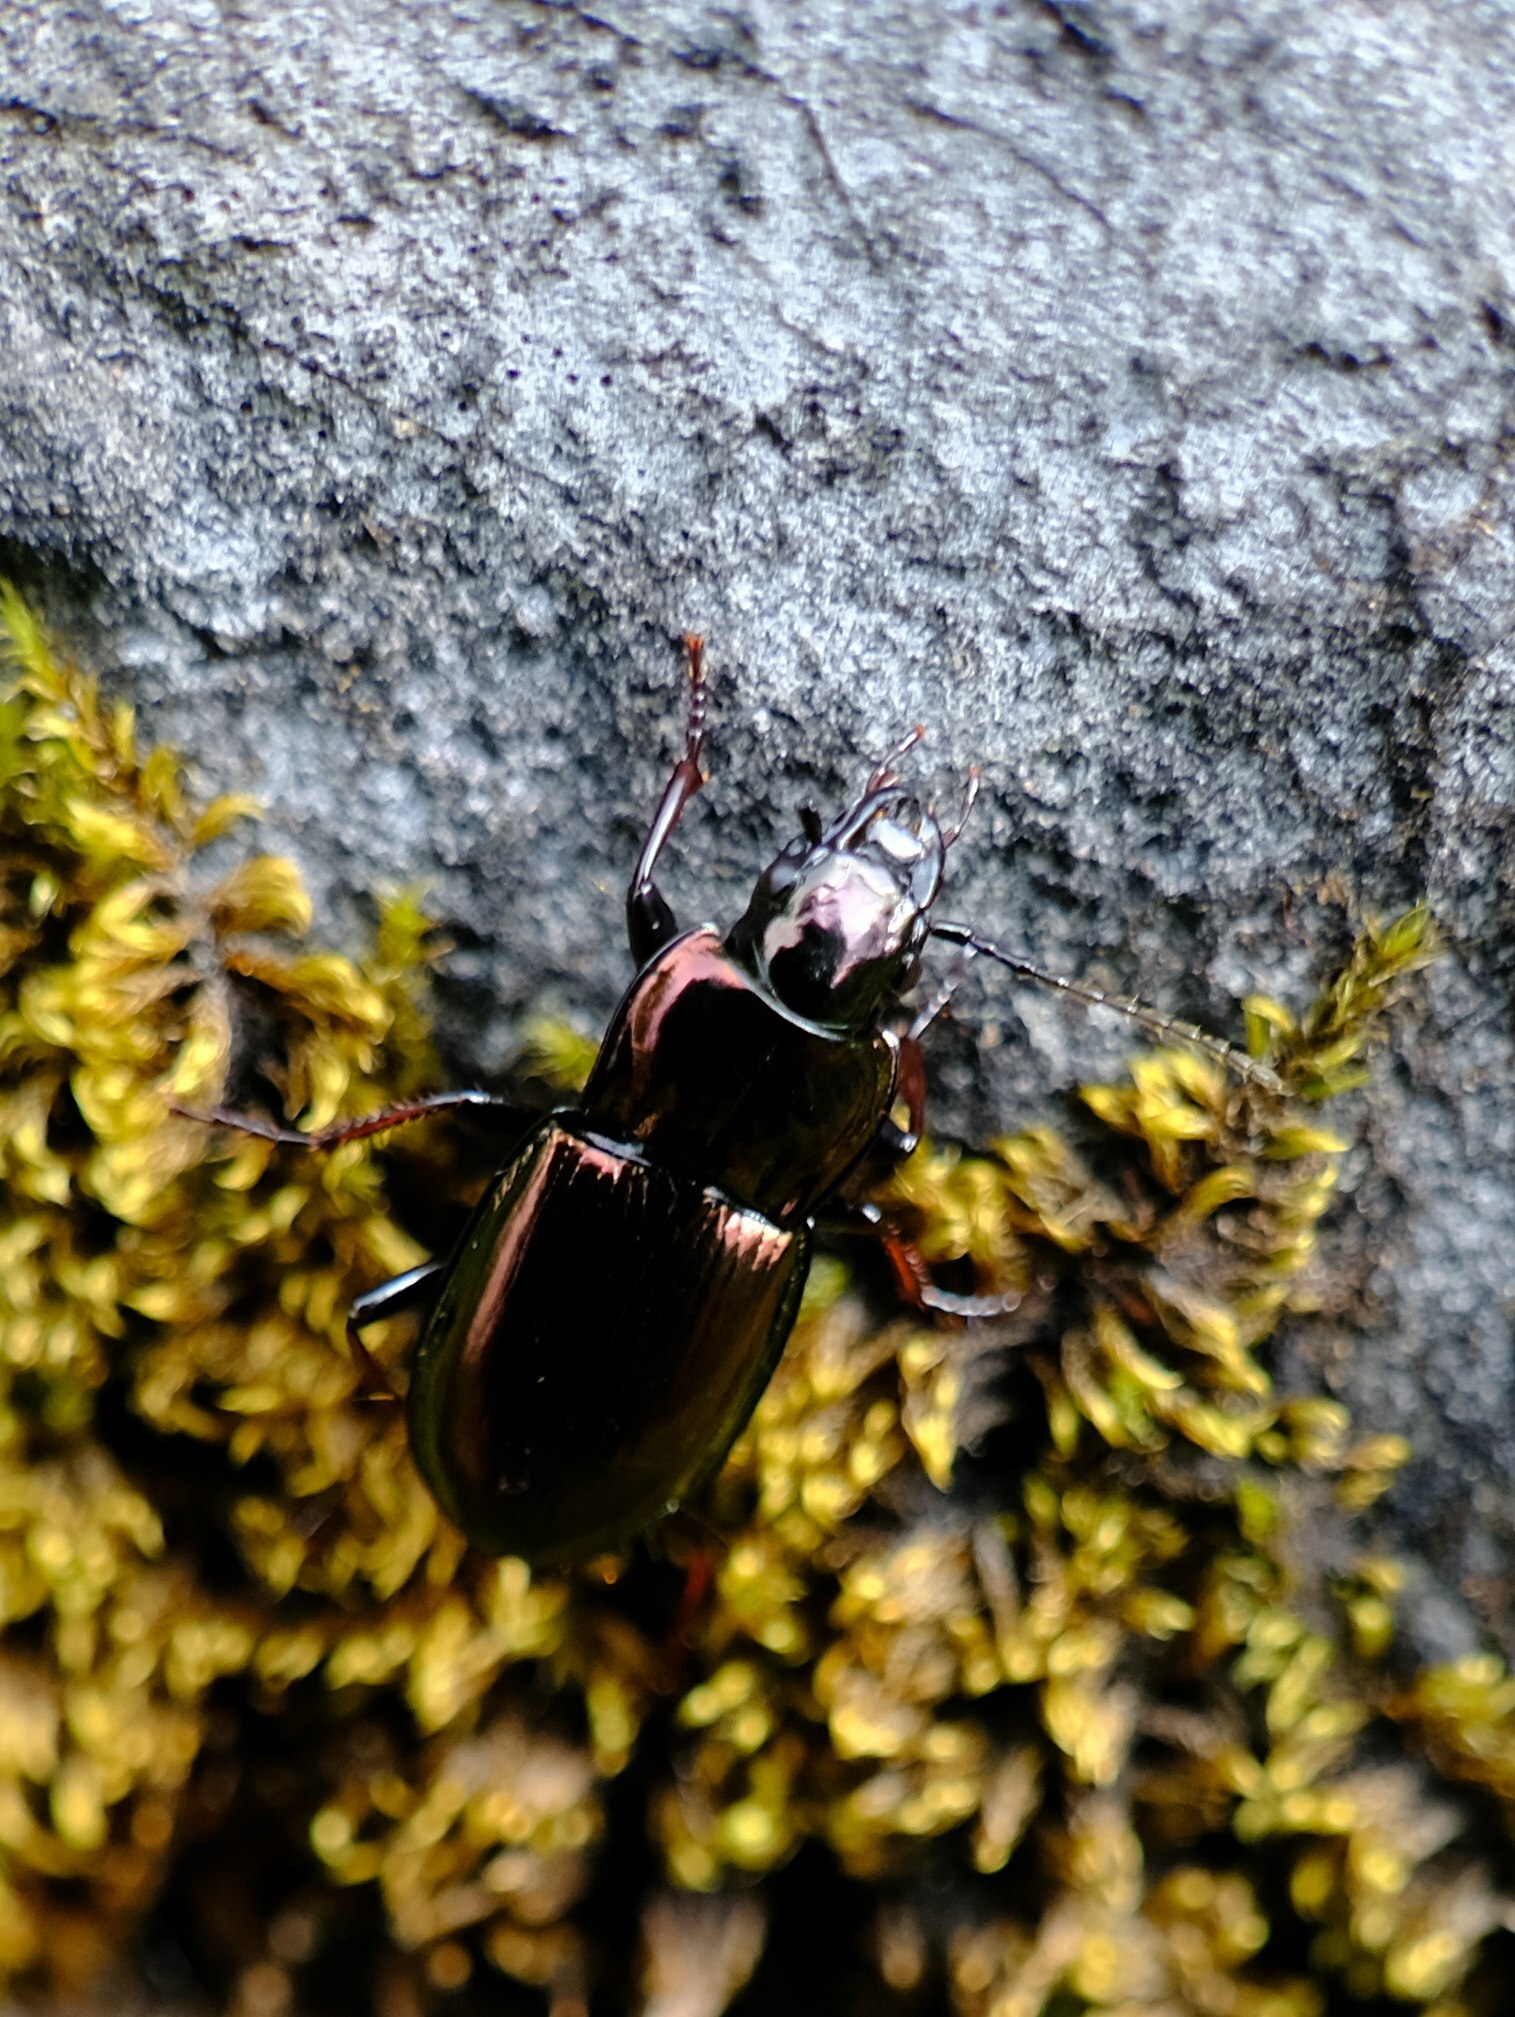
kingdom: Animalia
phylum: Arthropoda
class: Insecta
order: Coleoptera
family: Carabidae
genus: Pterostichus
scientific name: Pterostichus burmeisteri
